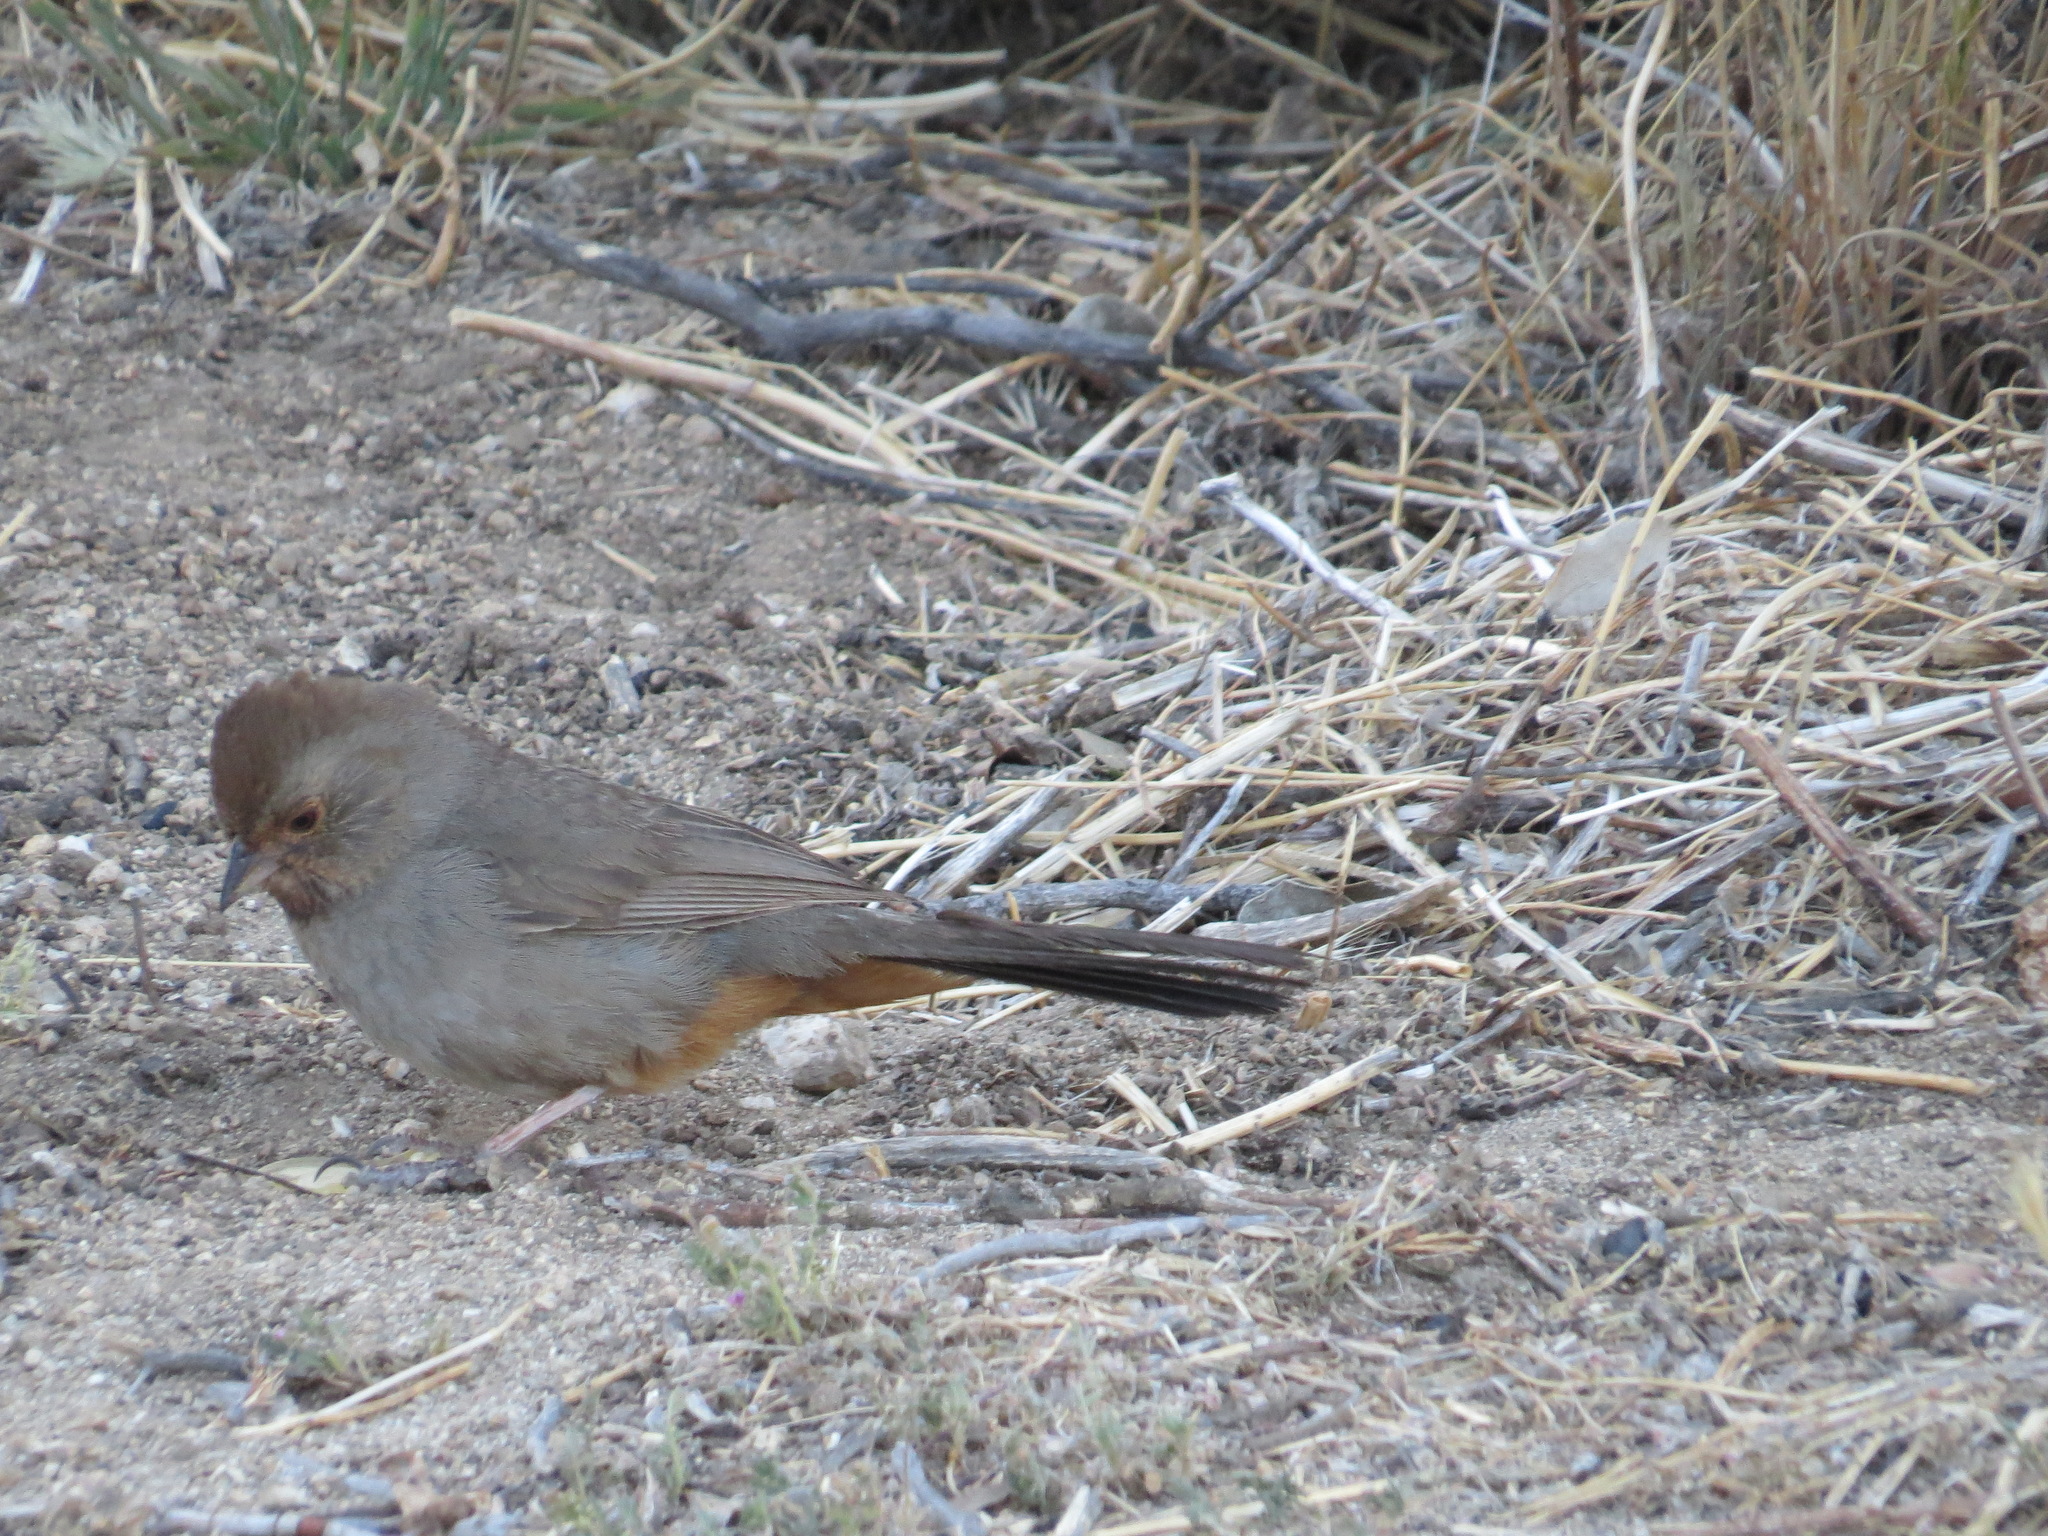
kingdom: Animalia
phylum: Chordata
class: Aves
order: Passeriformes
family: Passerellidae
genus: Melozone
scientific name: Melozone crissalis
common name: California towhee
